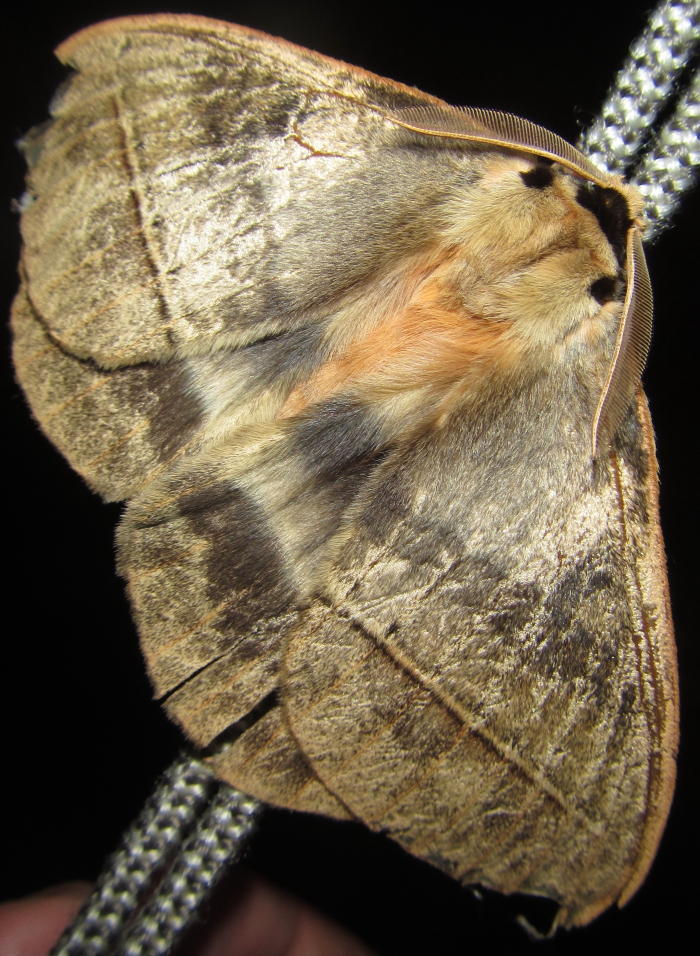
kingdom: Animalia
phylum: Arthropoda
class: Insecta
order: Lepidoptera
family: Eupterotidae
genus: Jana
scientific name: Jana eurymas
